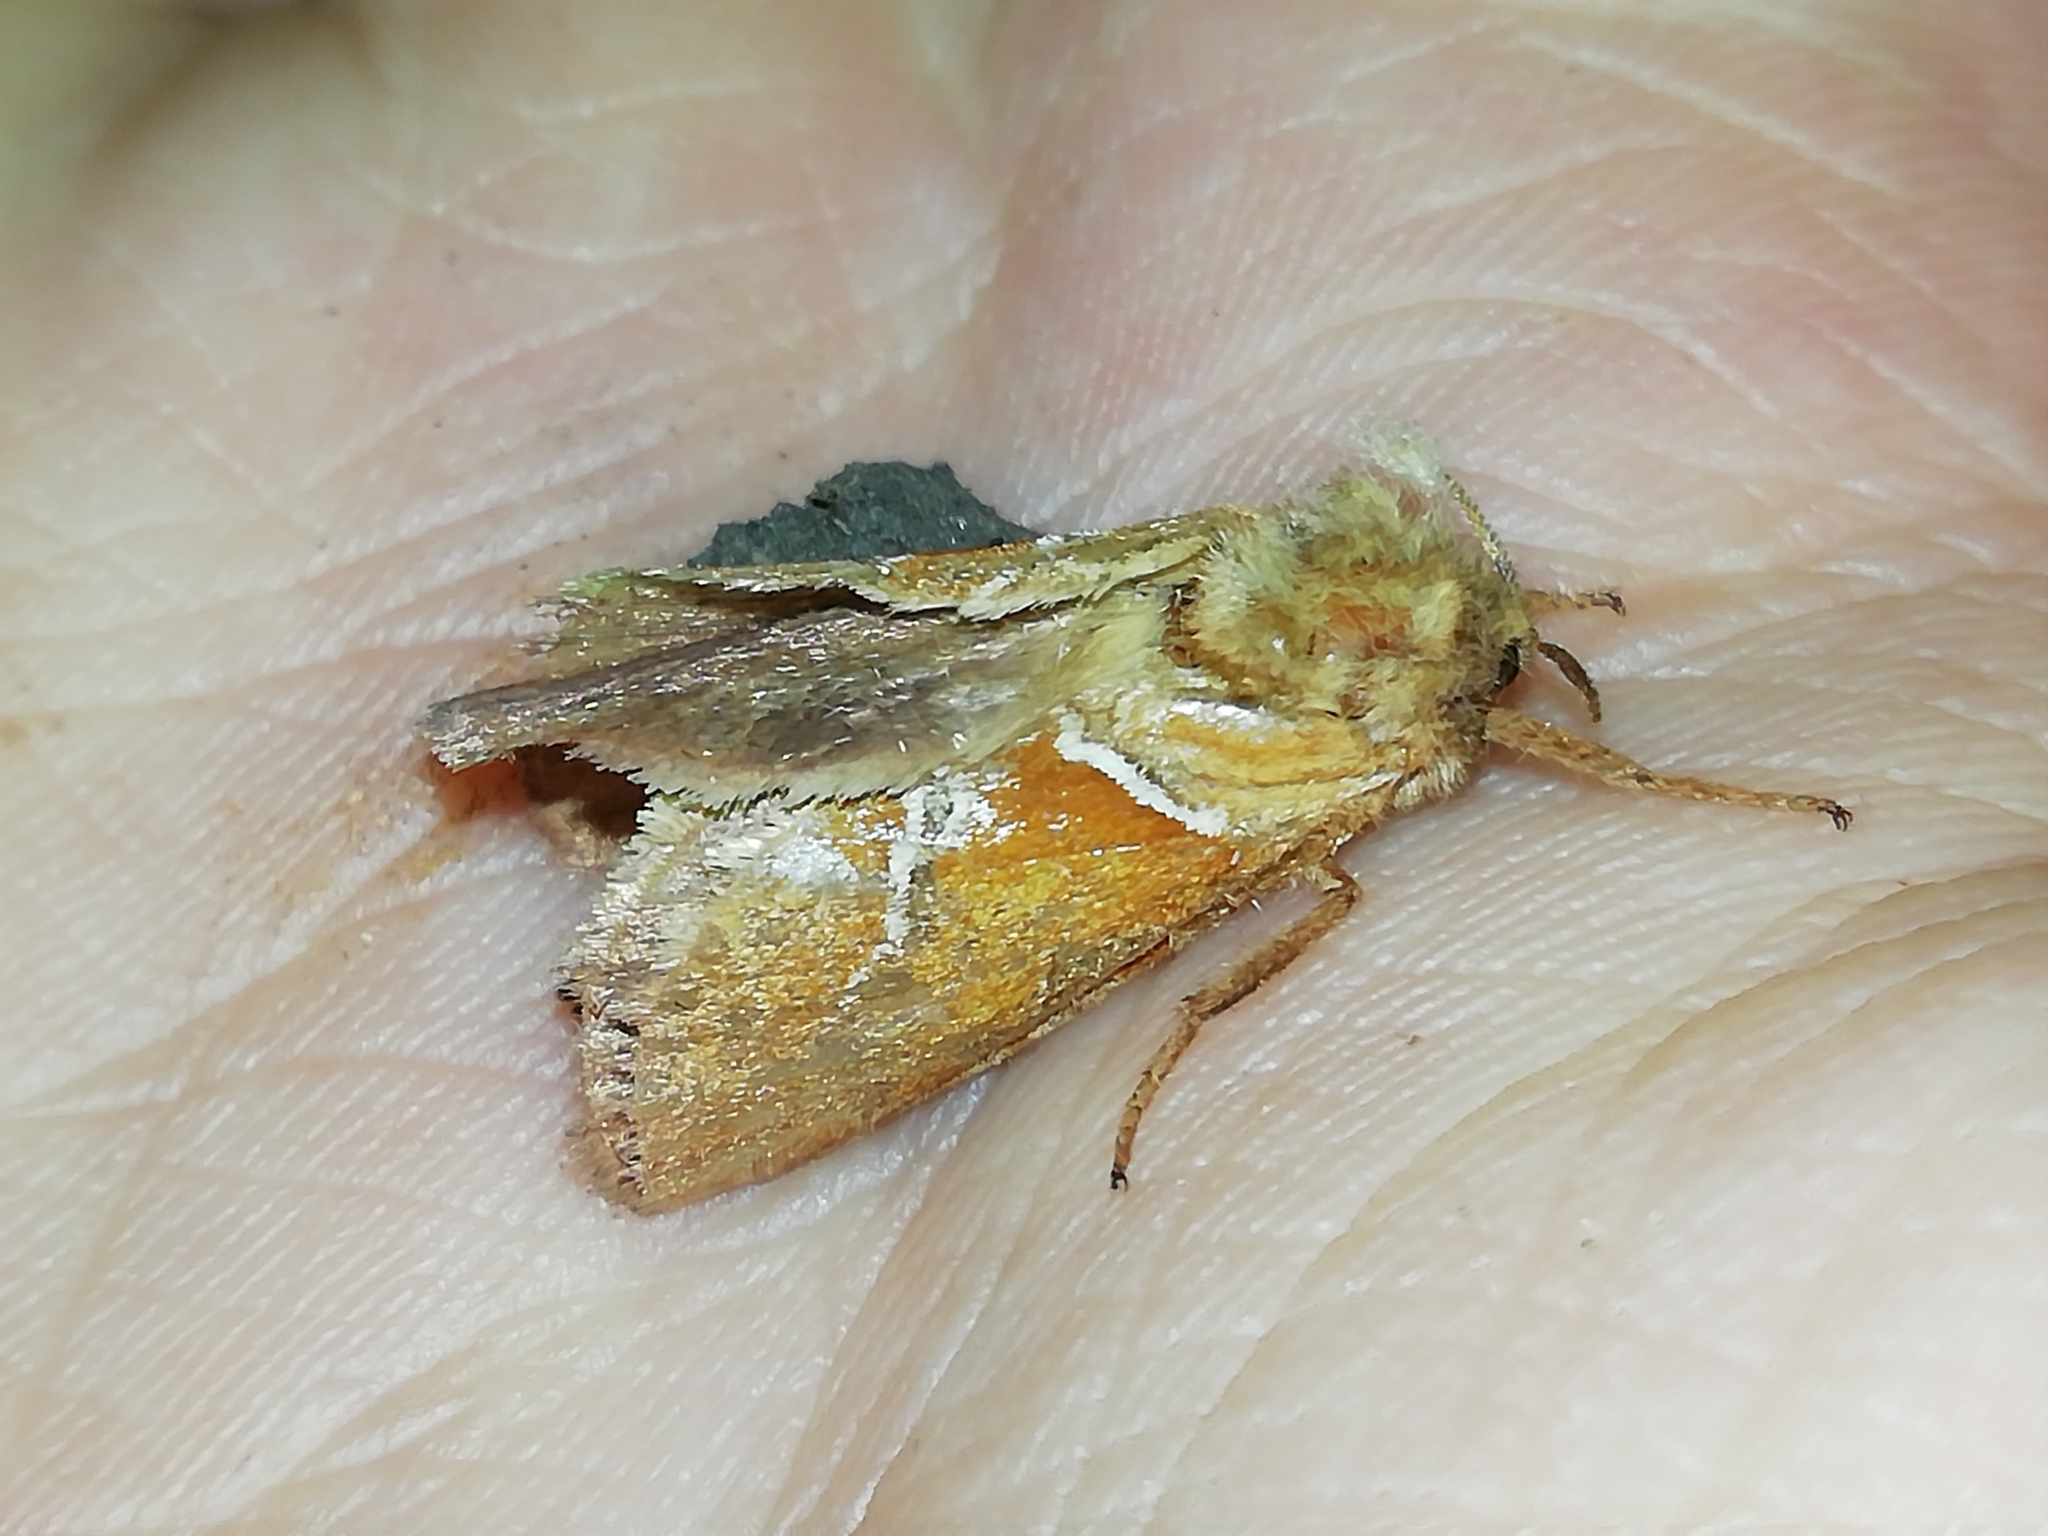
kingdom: Animalia
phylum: Arthropoda
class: Insecta
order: Lepidoptera
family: Hepialidae
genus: Triodia
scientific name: Triodia sylvina
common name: Orange swift
